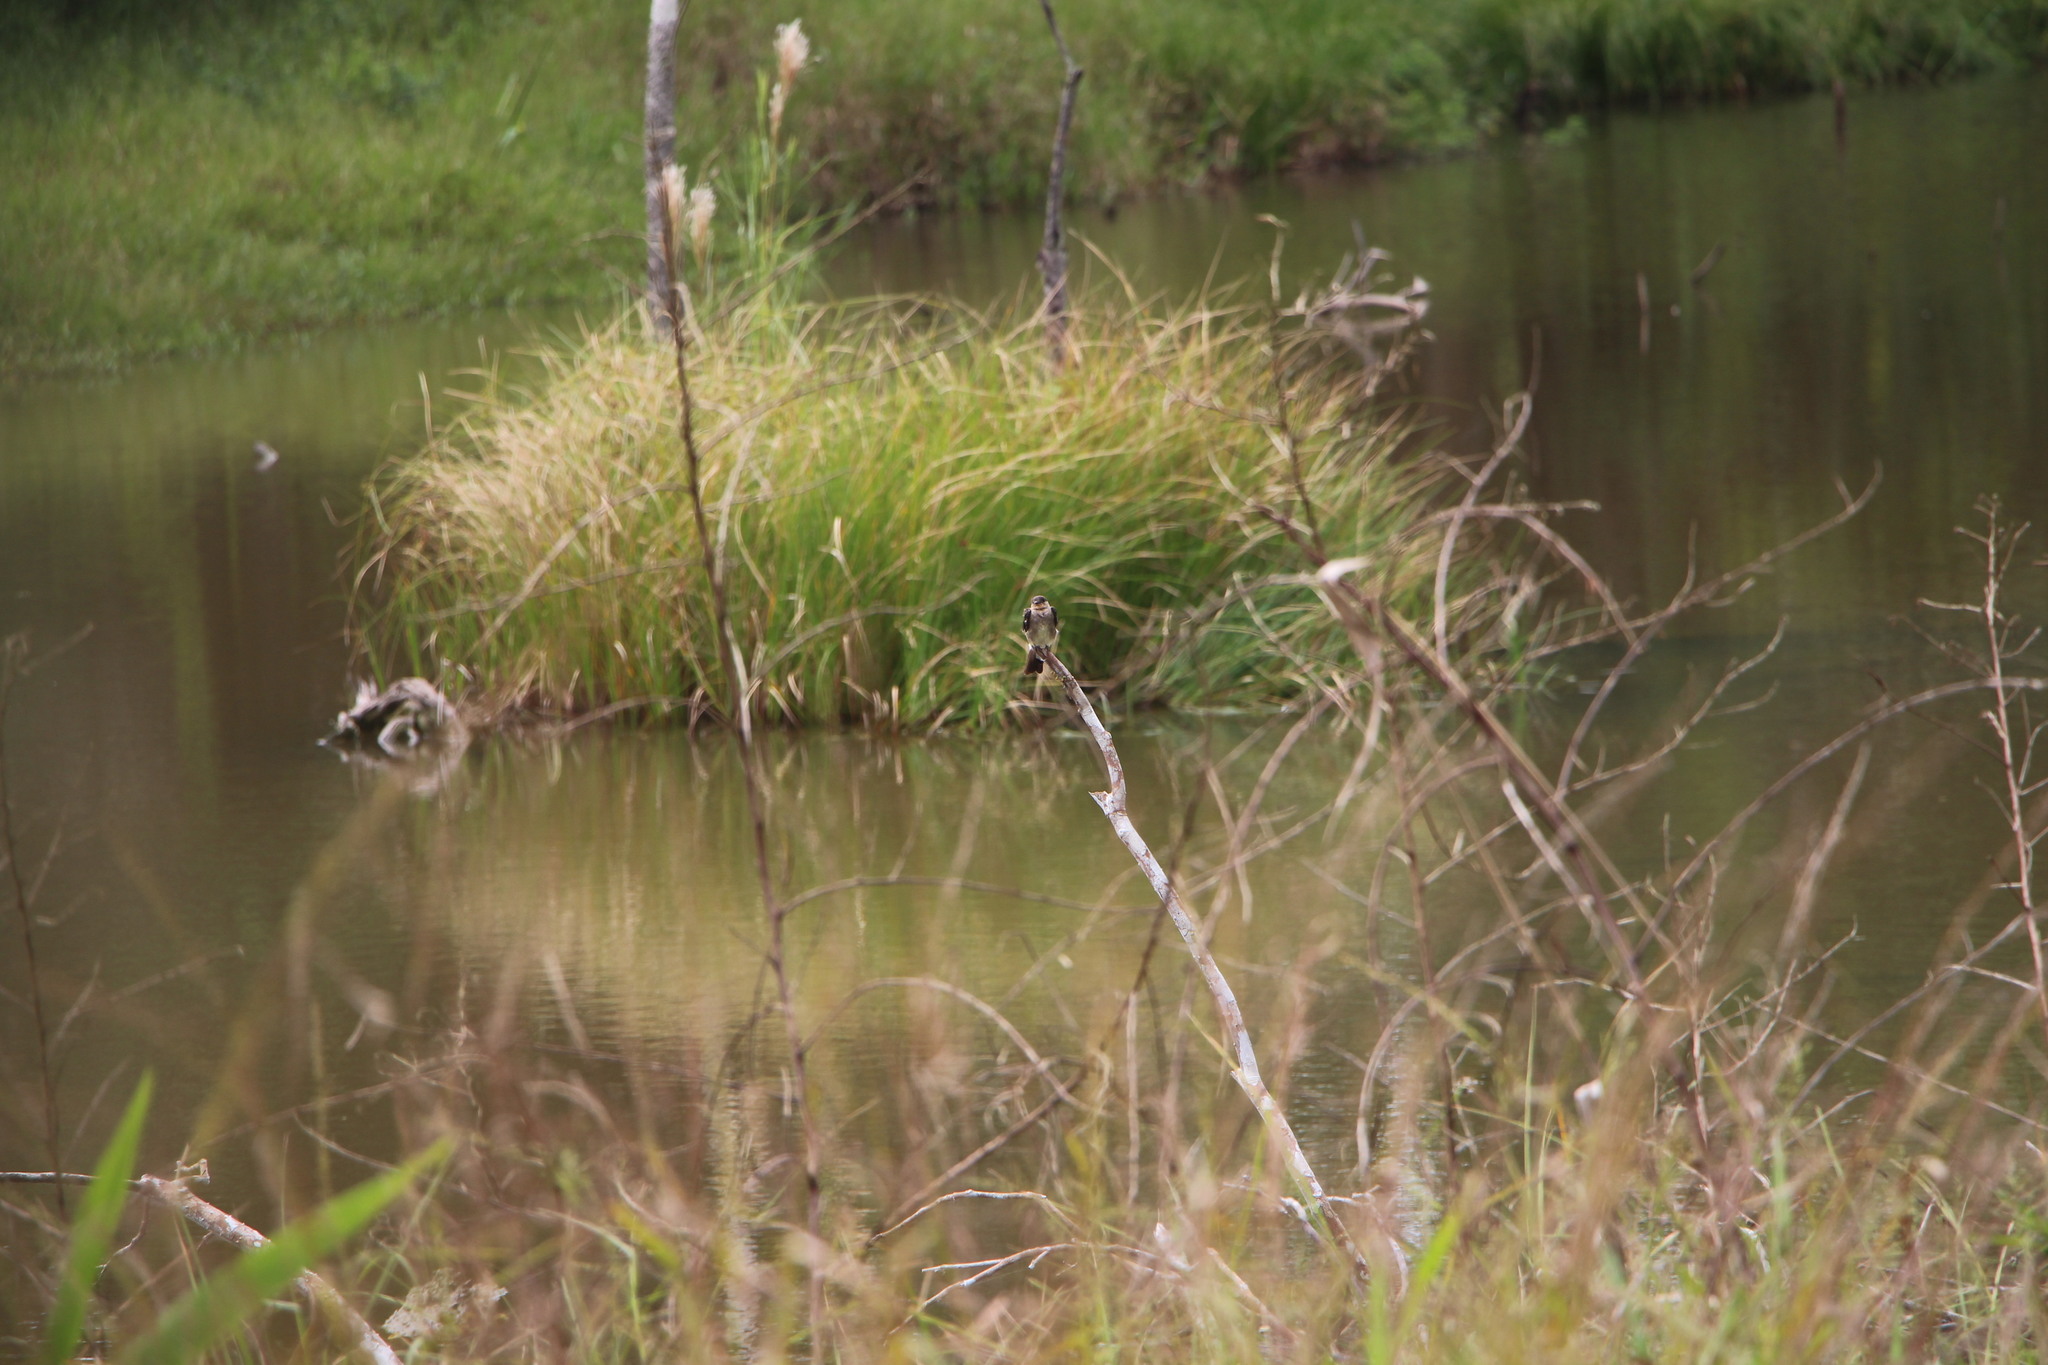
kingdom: Animalia
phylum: Chordata
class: Aves
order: Passeriformes
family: Hirundinidae
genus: Stelgidopteryx
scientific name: Stelgidopteryx ruficollis
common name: Southern rough-winged swallow
